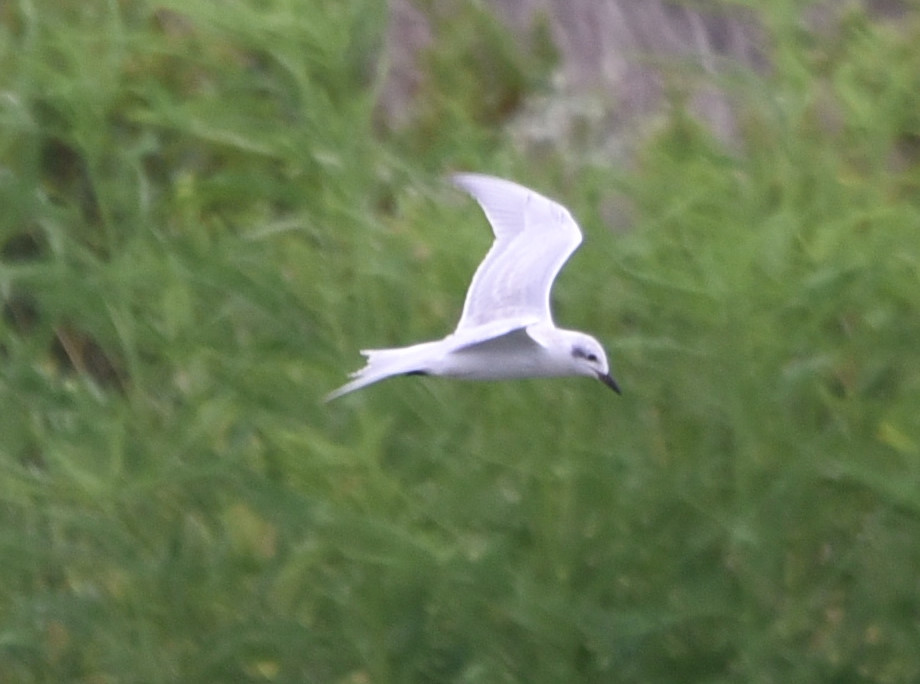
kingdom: Animalia
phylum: Chordata
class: Aves
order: Charadriiformes
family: Laridae
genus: Gelochelidon
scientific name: Gelochelidon nilotica
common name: Gull-billed tern
